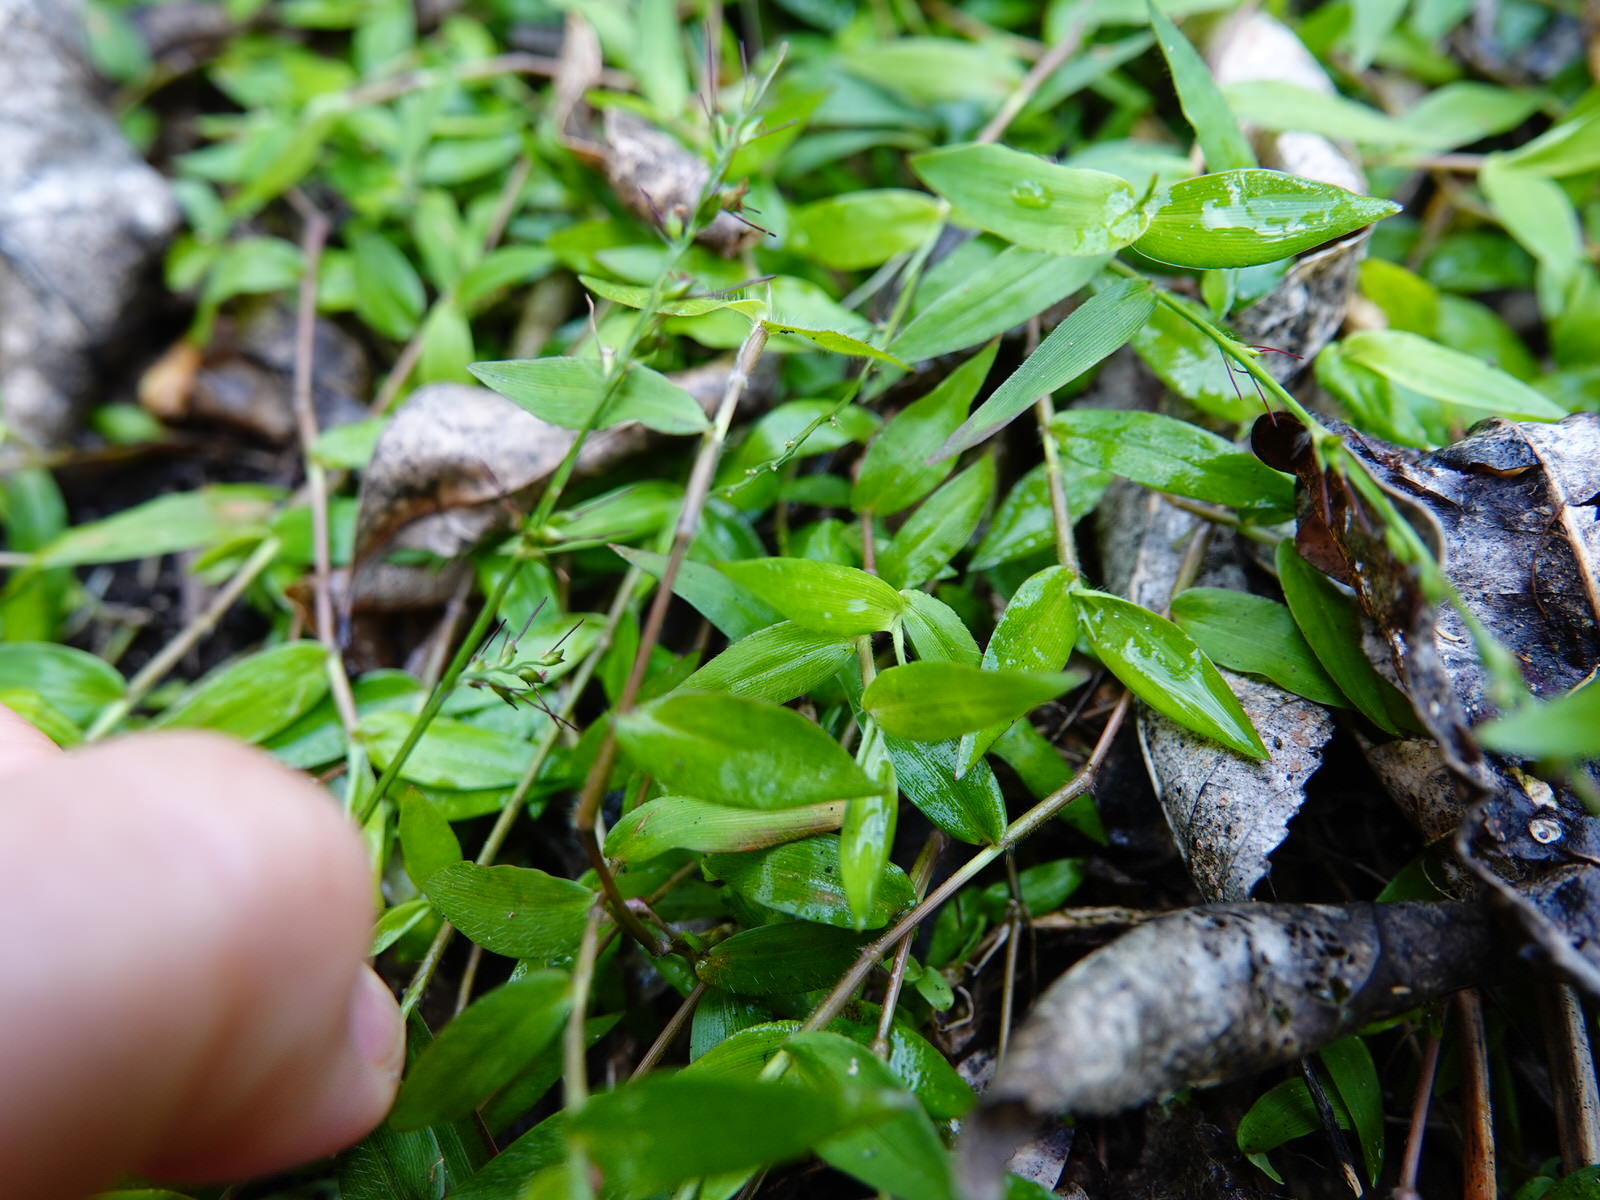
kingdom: Plantae
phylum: Tracheophyta
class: Liliopsida
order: Poales
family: Poaceae
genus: Oplismenus
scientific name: Oplismenus hirtellus
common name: Basketgrass
